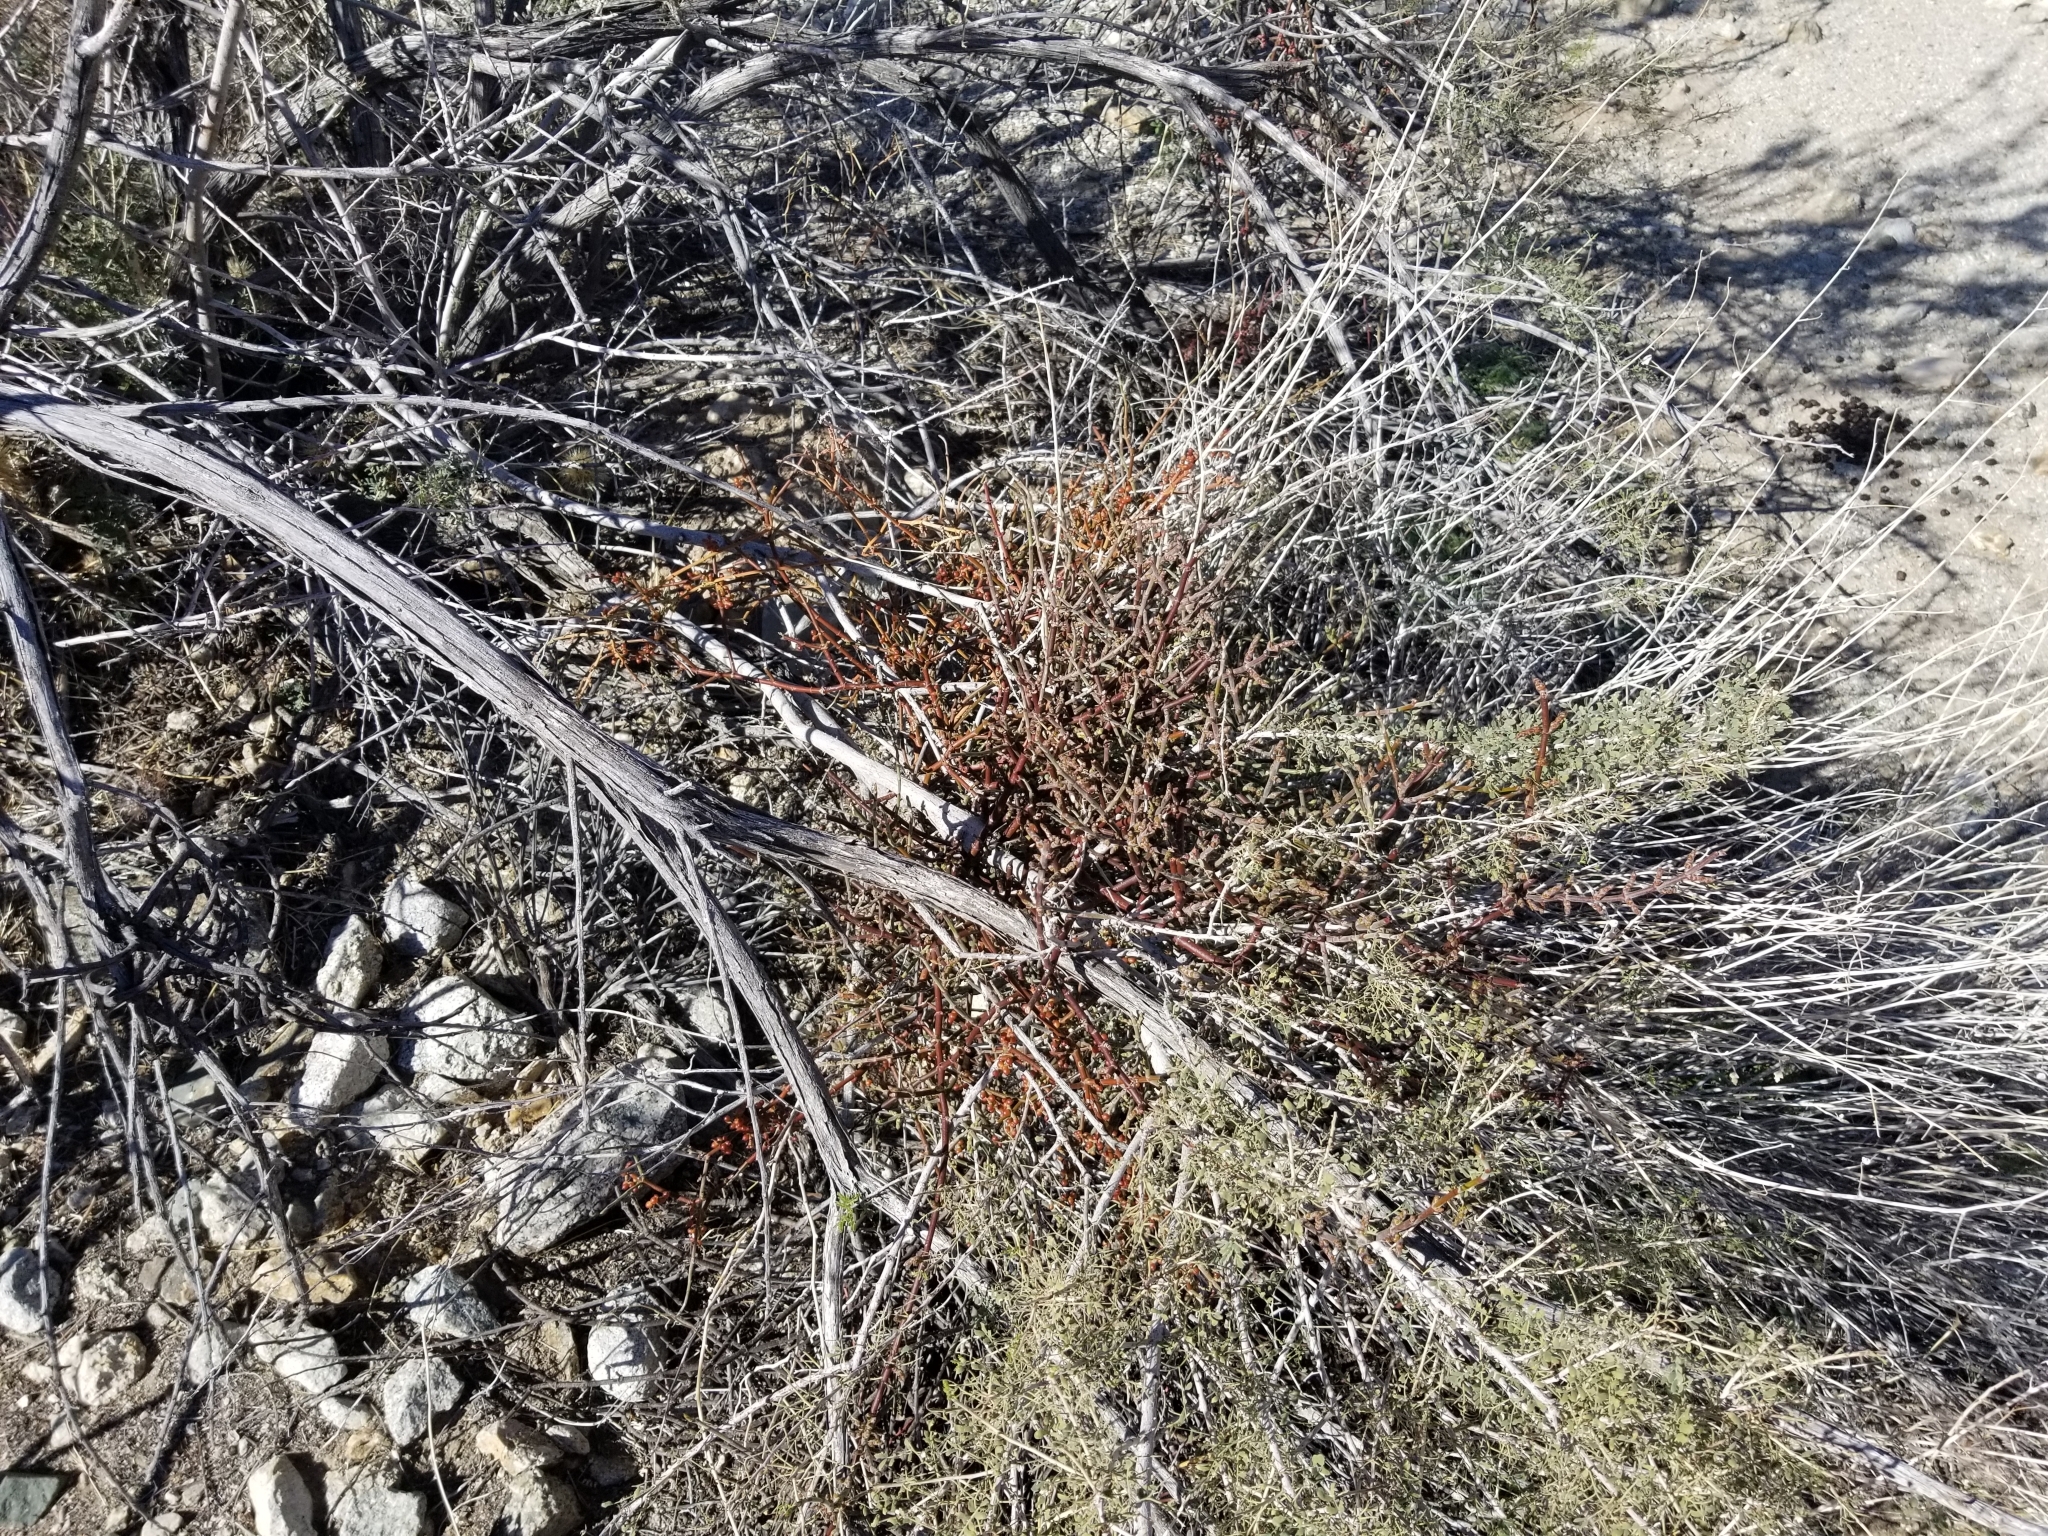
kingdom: Plantae
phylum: Tracheophyta
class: Magnoliopsida
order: Santalales
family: Viscaceae
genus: Phoradendron
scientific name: Phoradendron californicum
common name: Acacia mistletoe
